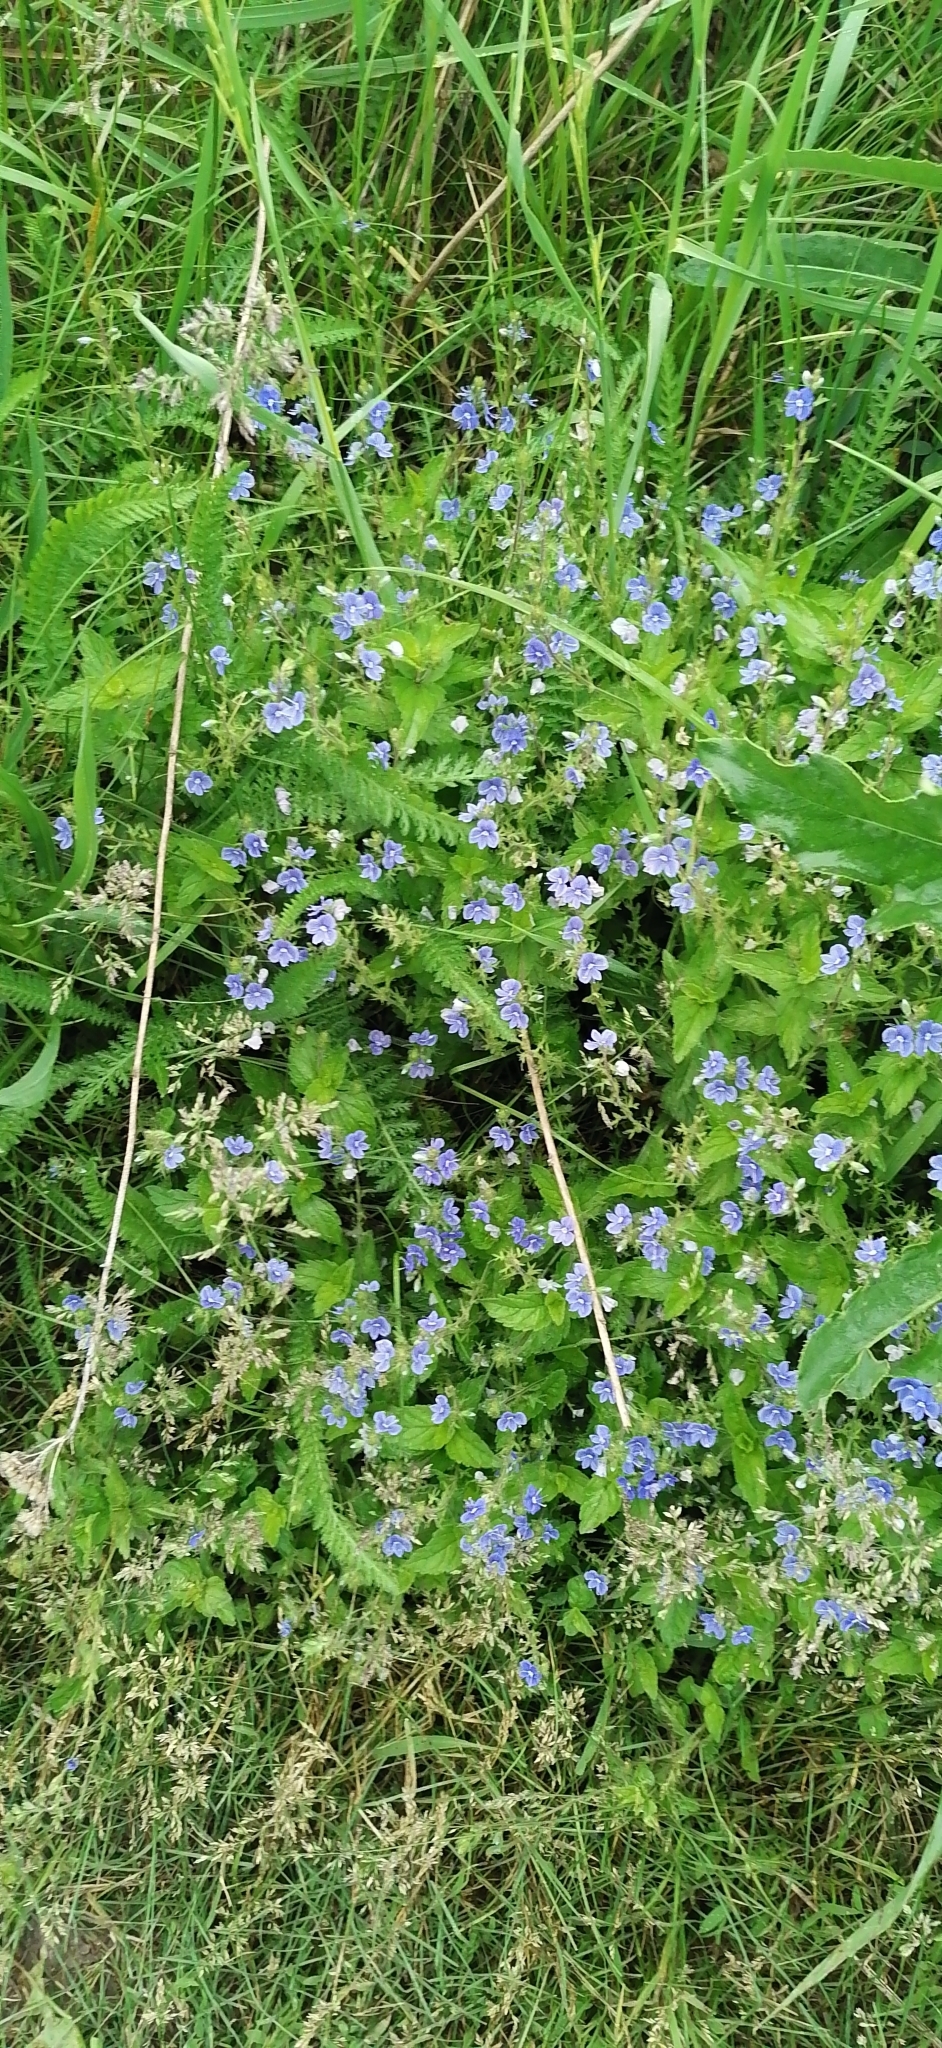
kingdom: Plantae
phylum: Tracheophyta
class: Magnoliopsida
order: Lamiales
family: Plantaginaceae
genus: Veronica
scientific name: Veronica chamaedrys
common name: Germander speedwell
